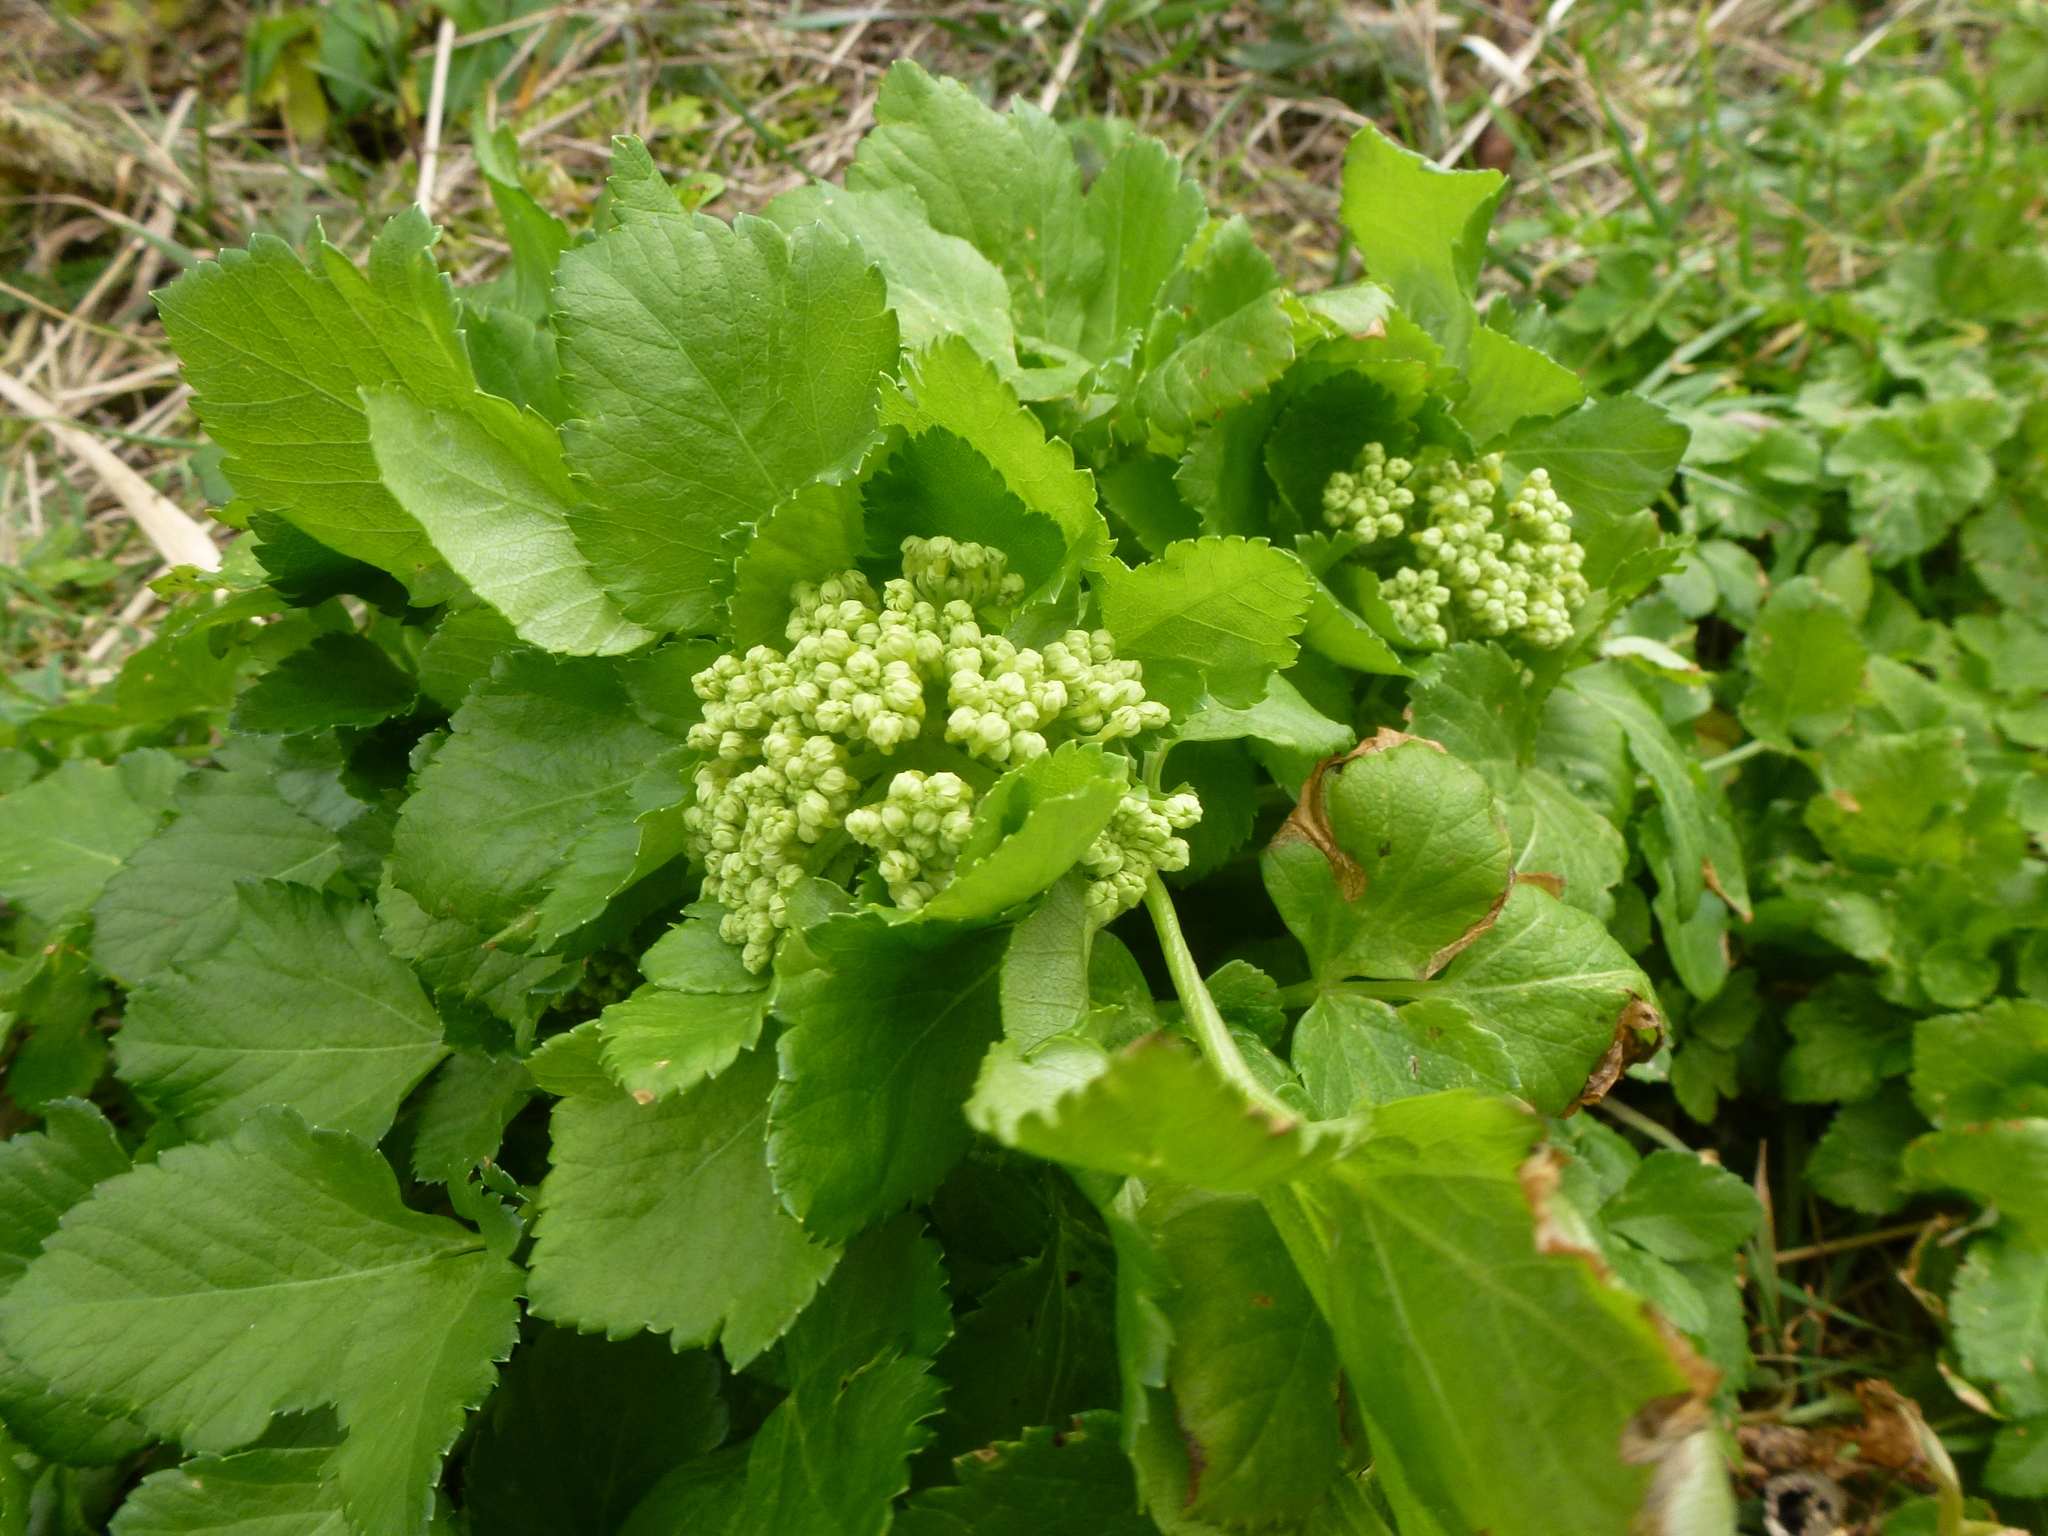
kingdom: Plantae
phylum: Tracheophyta
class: Magnoliopsida
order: Apiales
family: Apiaceae
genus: Smyrnium
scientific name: Smyrnium olusatrum
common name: Alexanders
